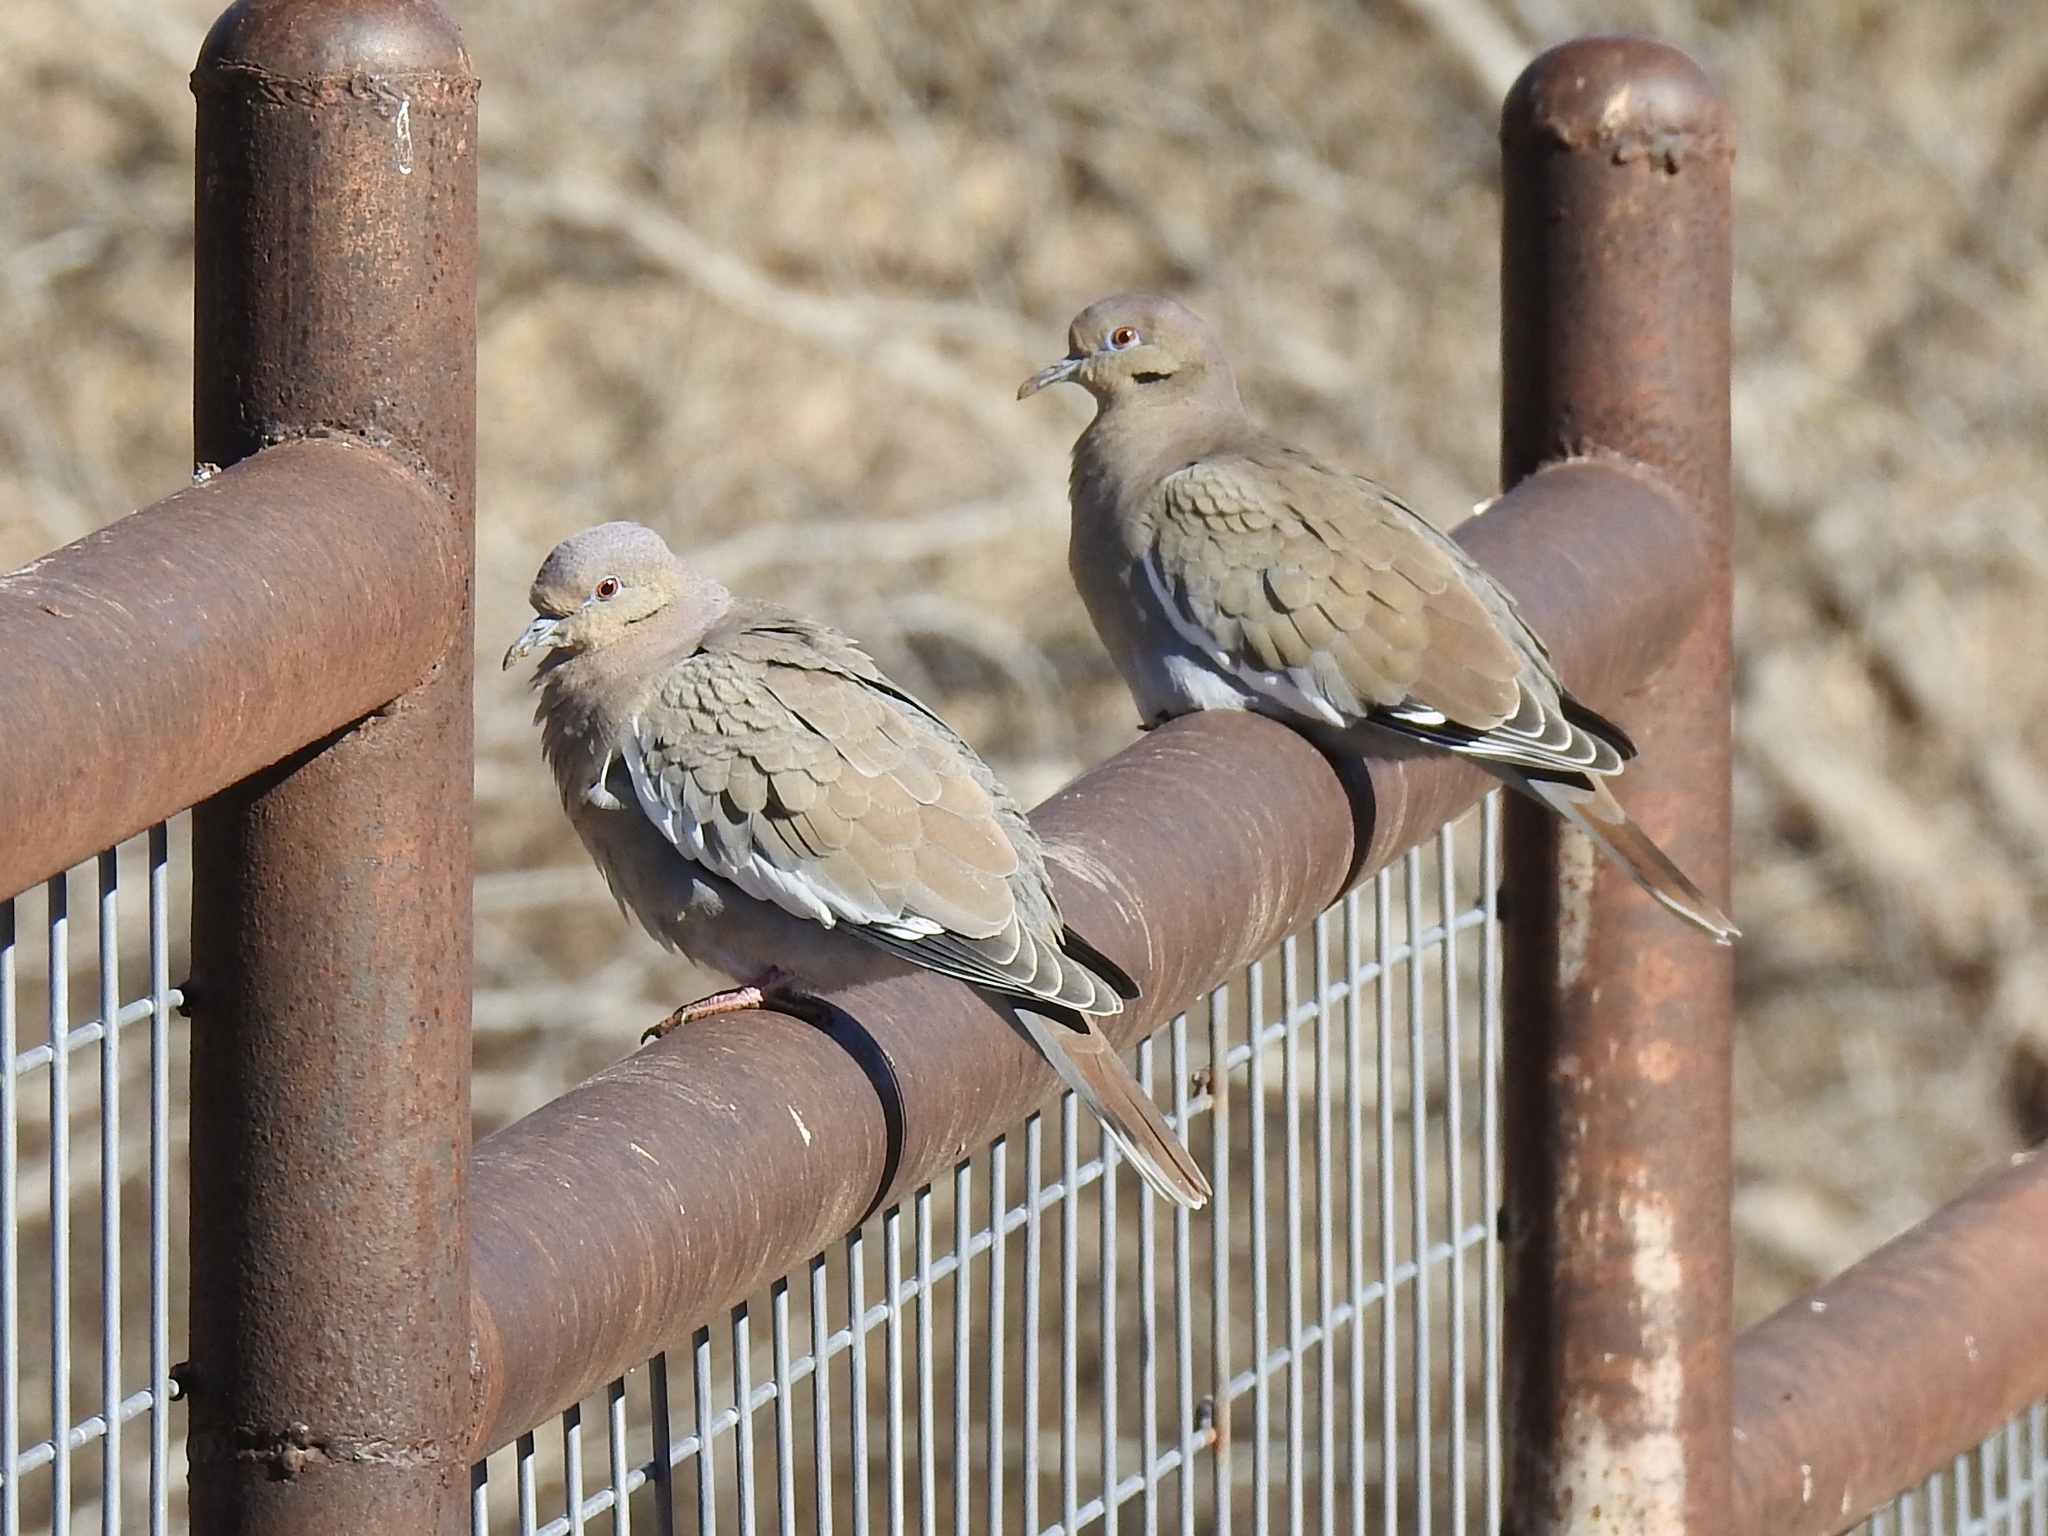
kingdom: Animalia
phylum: Chordata
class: Aves
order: Columbiformes
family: Columbidae
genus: Zenaida
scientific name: Zenaida asiatica
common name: White-winged dove
